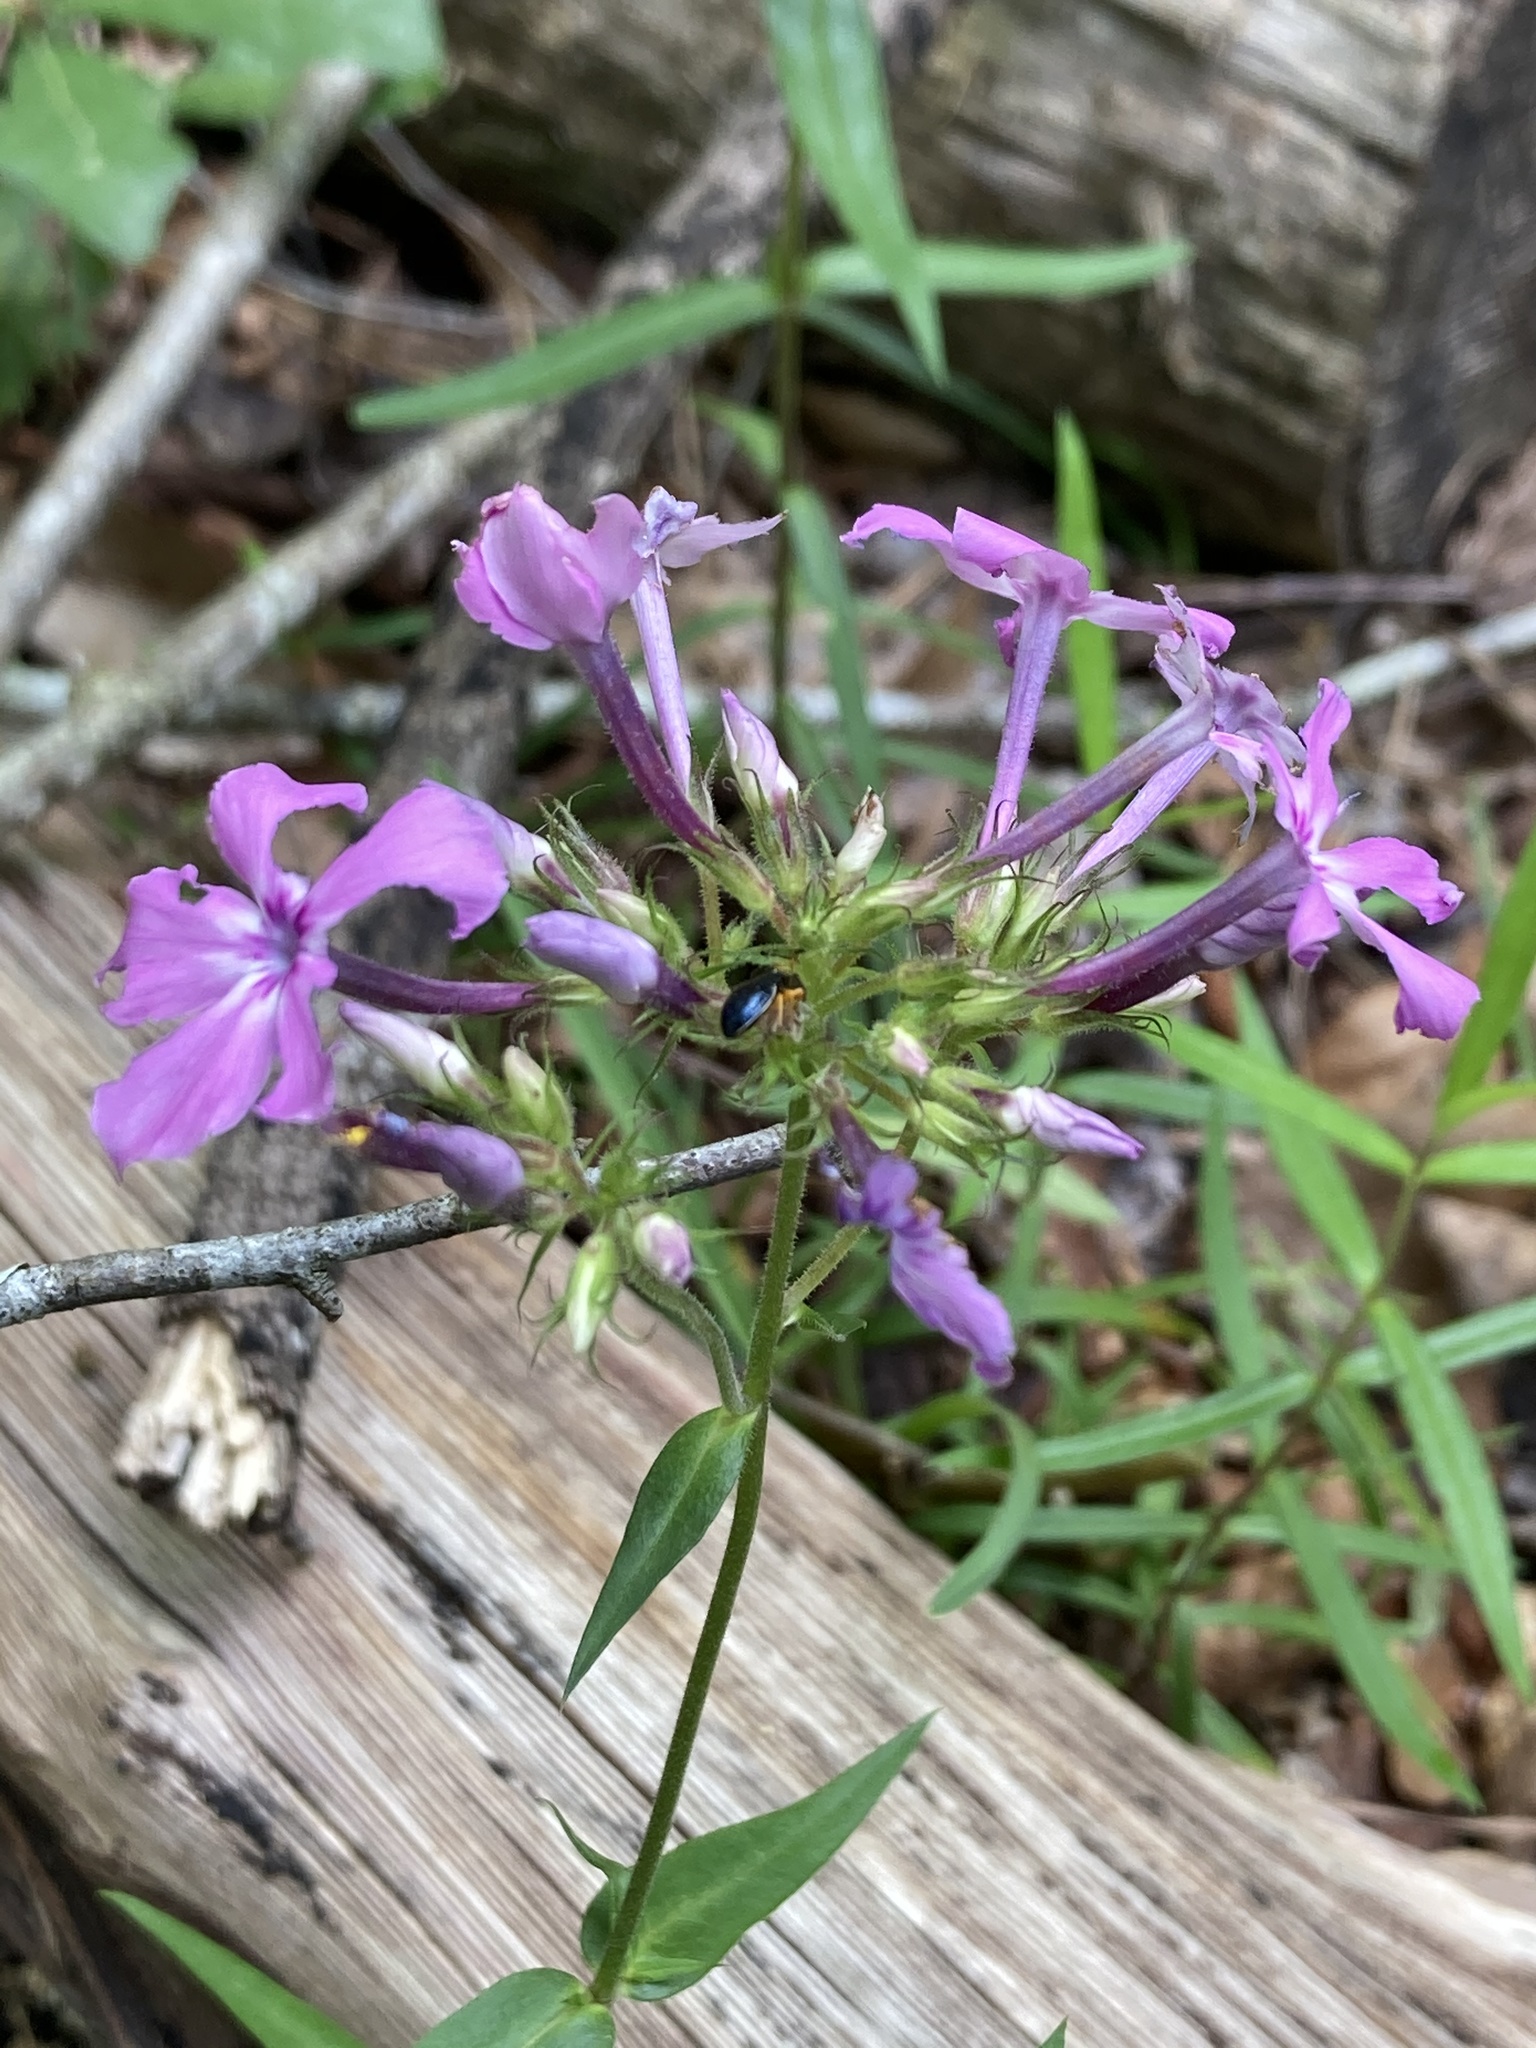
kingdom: Plantae
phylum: Tracheophyta
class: Magnoliopsida
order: Ericales
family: Polemoniaceae
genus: Phlox
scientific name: Phlox pilosa
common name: Prairie phlox
